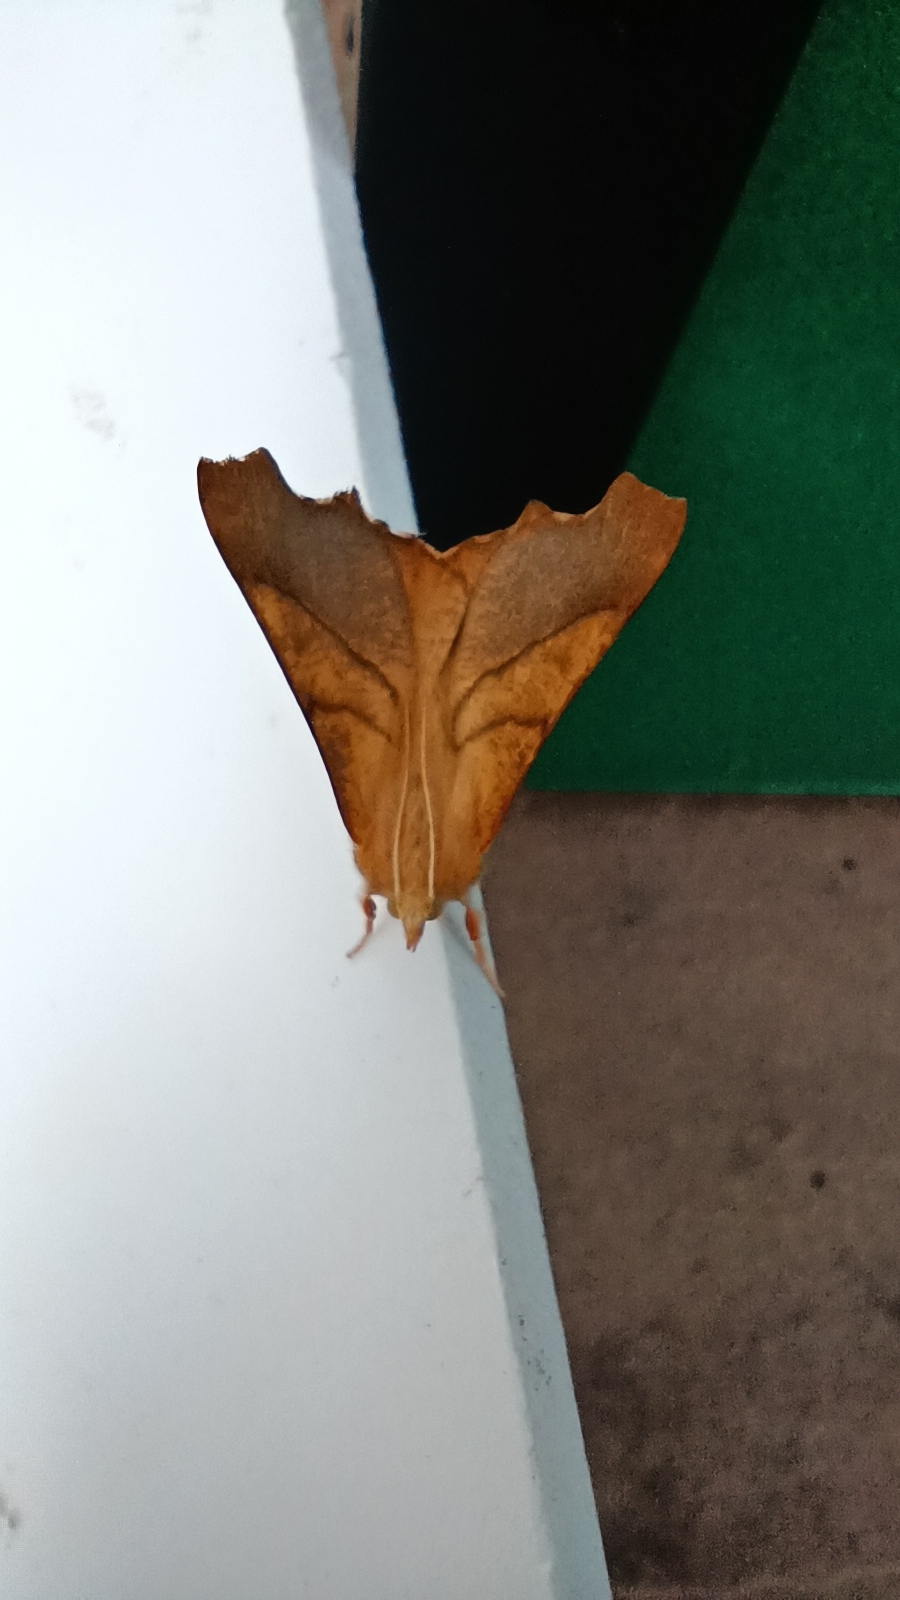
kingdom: Animalia
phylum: Arthropoda
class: Insecta
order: Lepidoptera
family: Geometridae
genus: Ennomos
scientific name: Ennomos fuscantaria
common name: Dusky thorn
